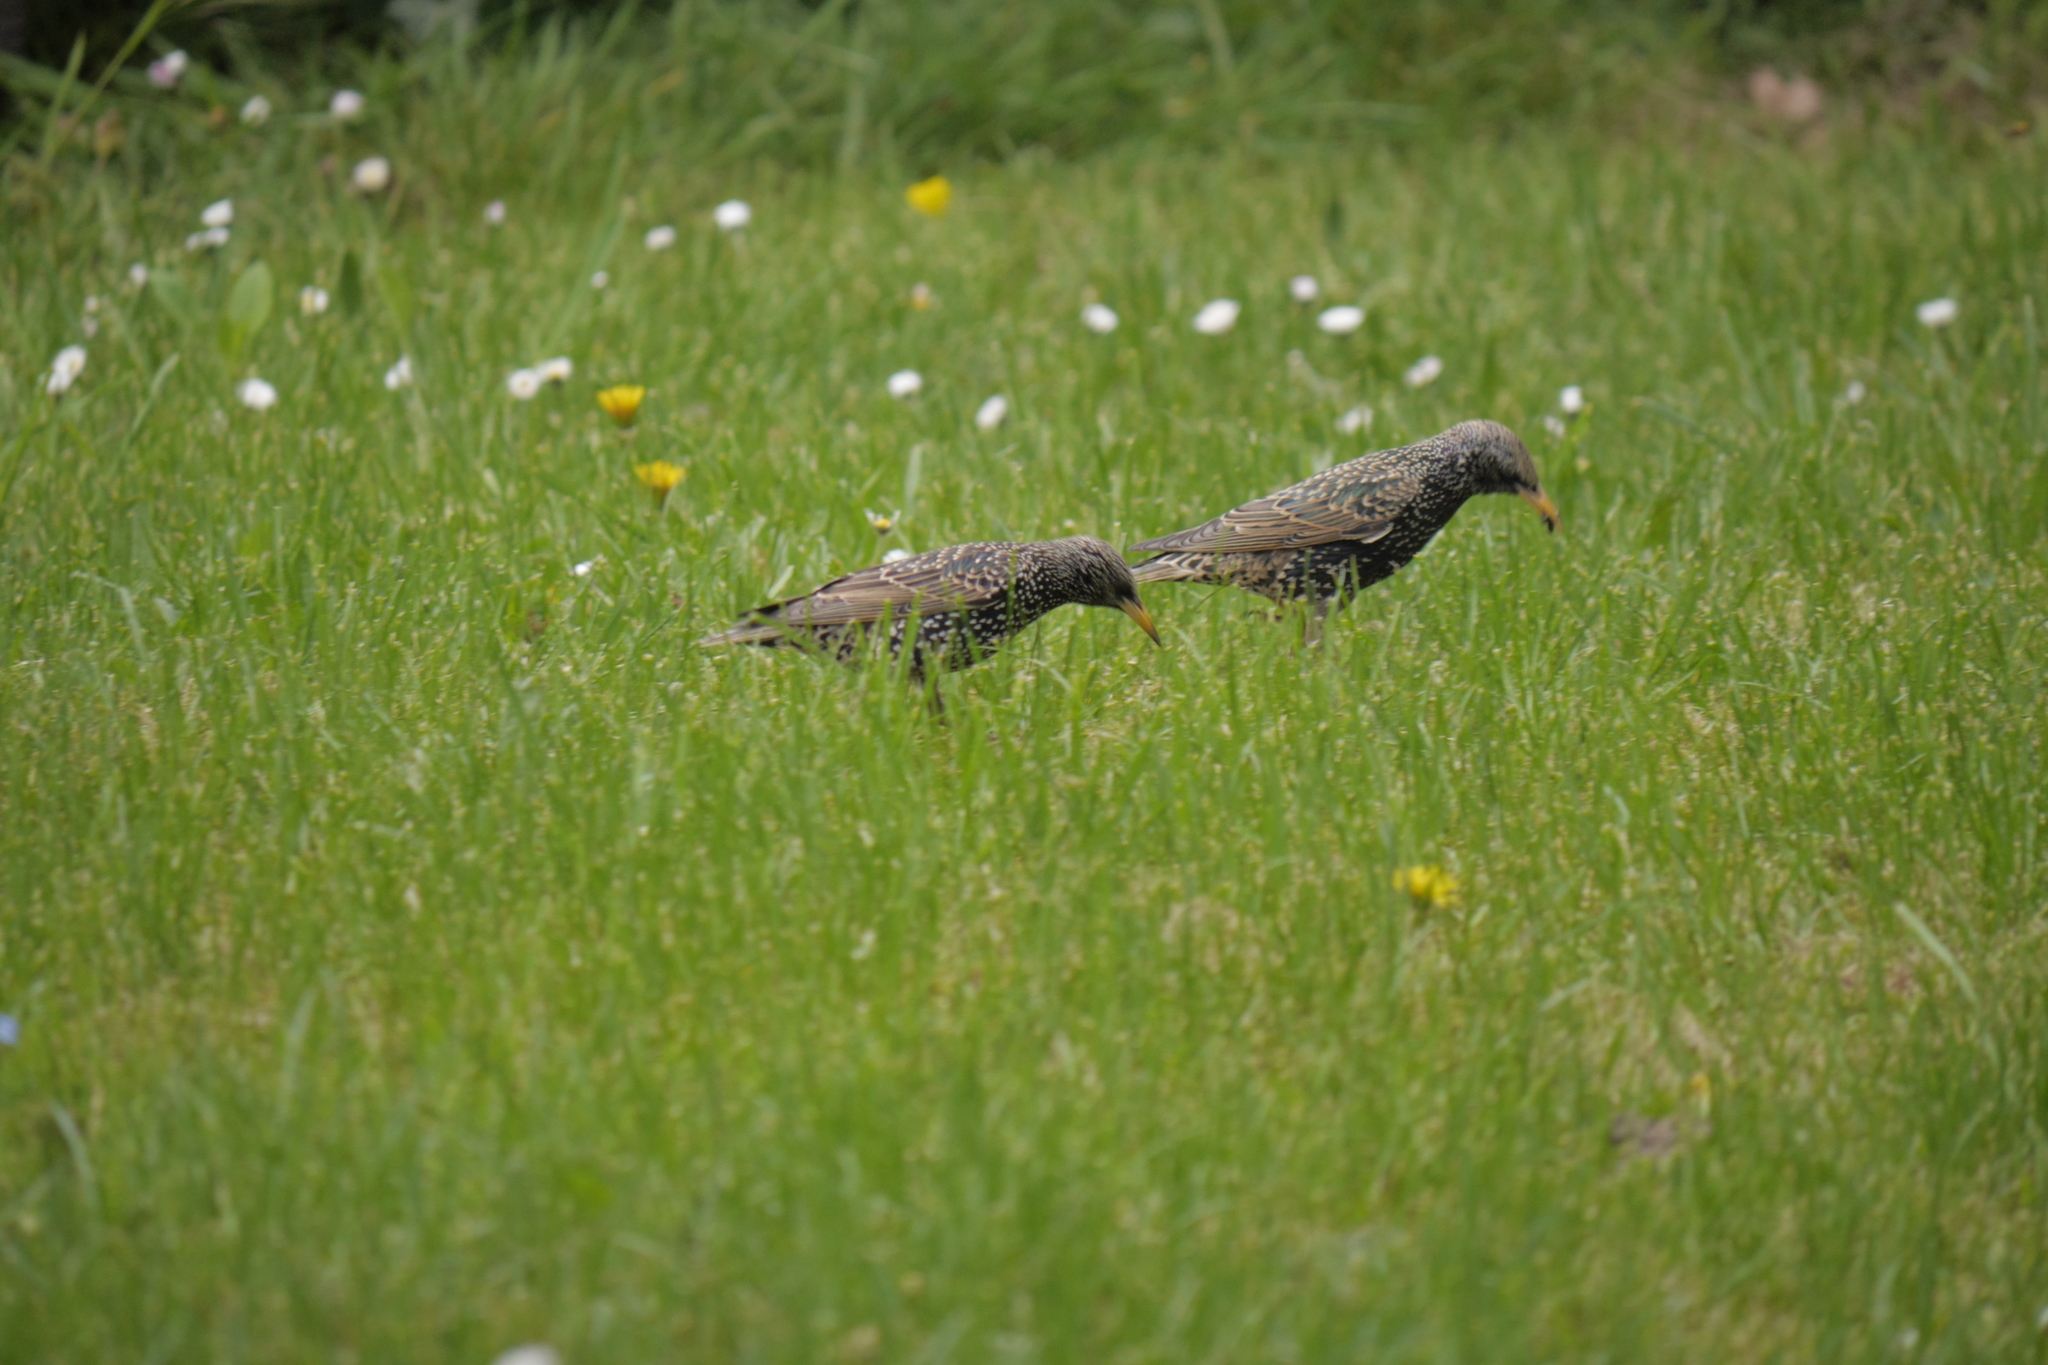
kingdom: Animalia
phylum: Chordata
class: Aves
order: Passeriformes
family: Sturnidae
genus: Sturnus
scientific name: Sturnus vulgaris
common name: Common starling
